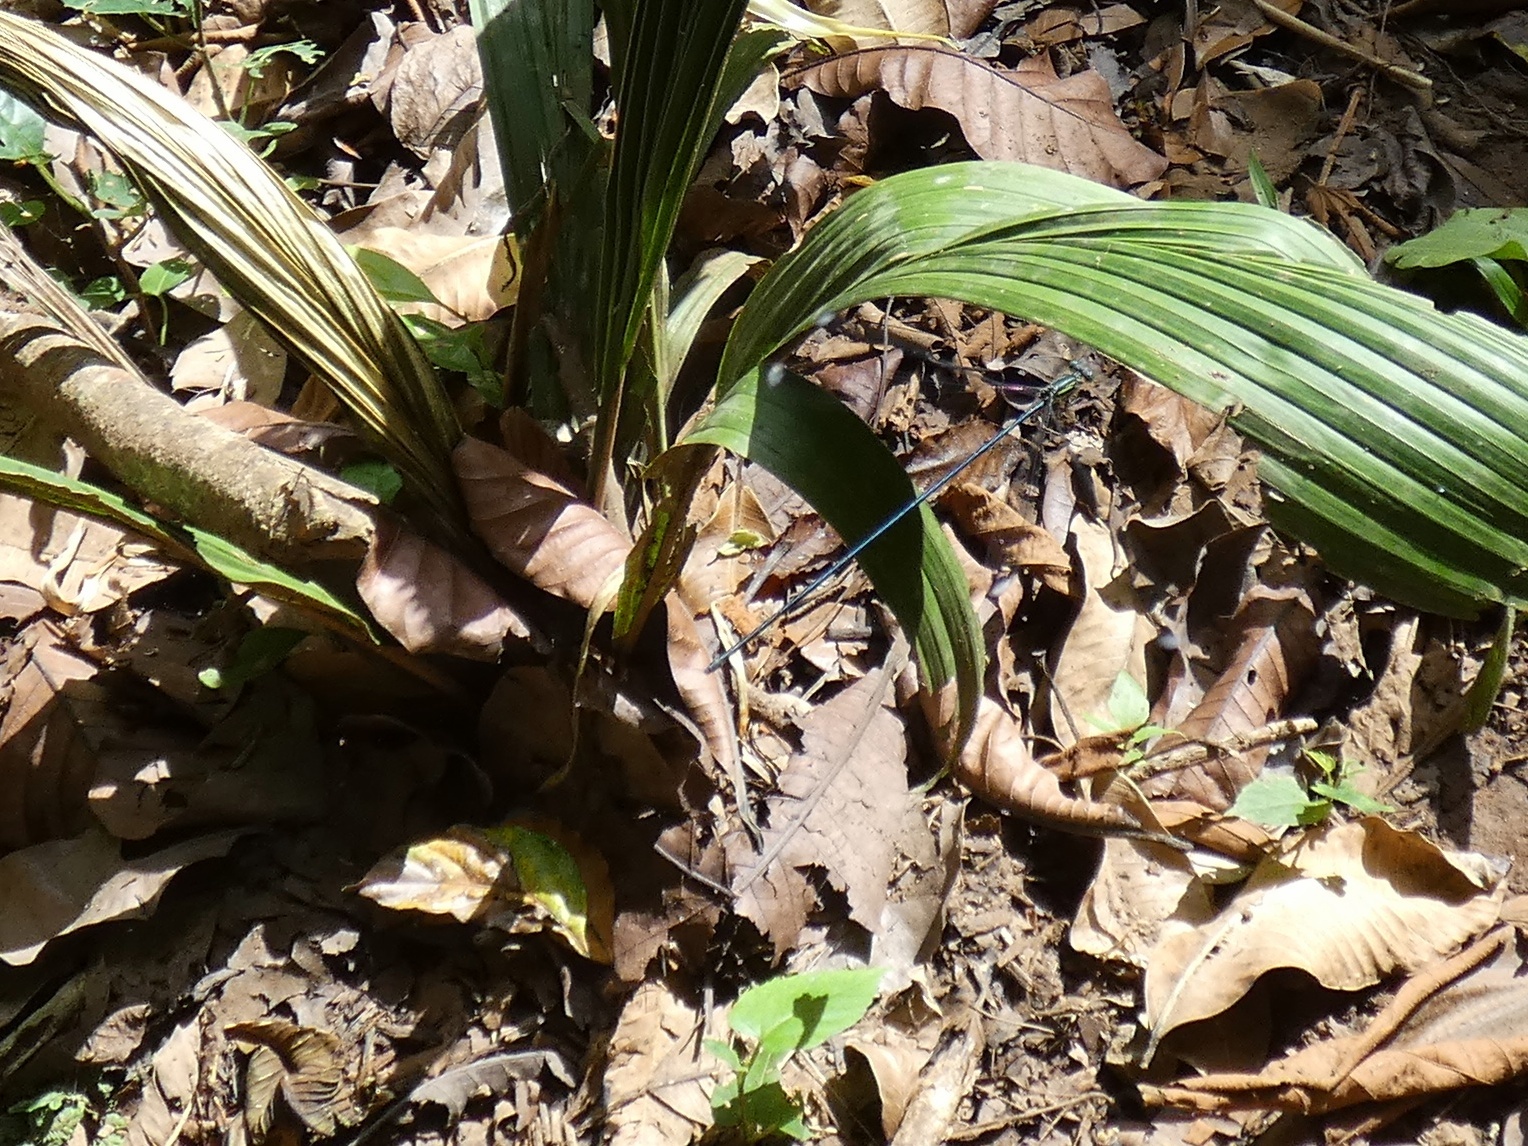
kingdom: Animalia
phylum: Arthropoda
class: Insecta
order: Odonata
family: Coenagrionidae
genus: Mecistogaster
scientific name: Mecistogaster linearis
